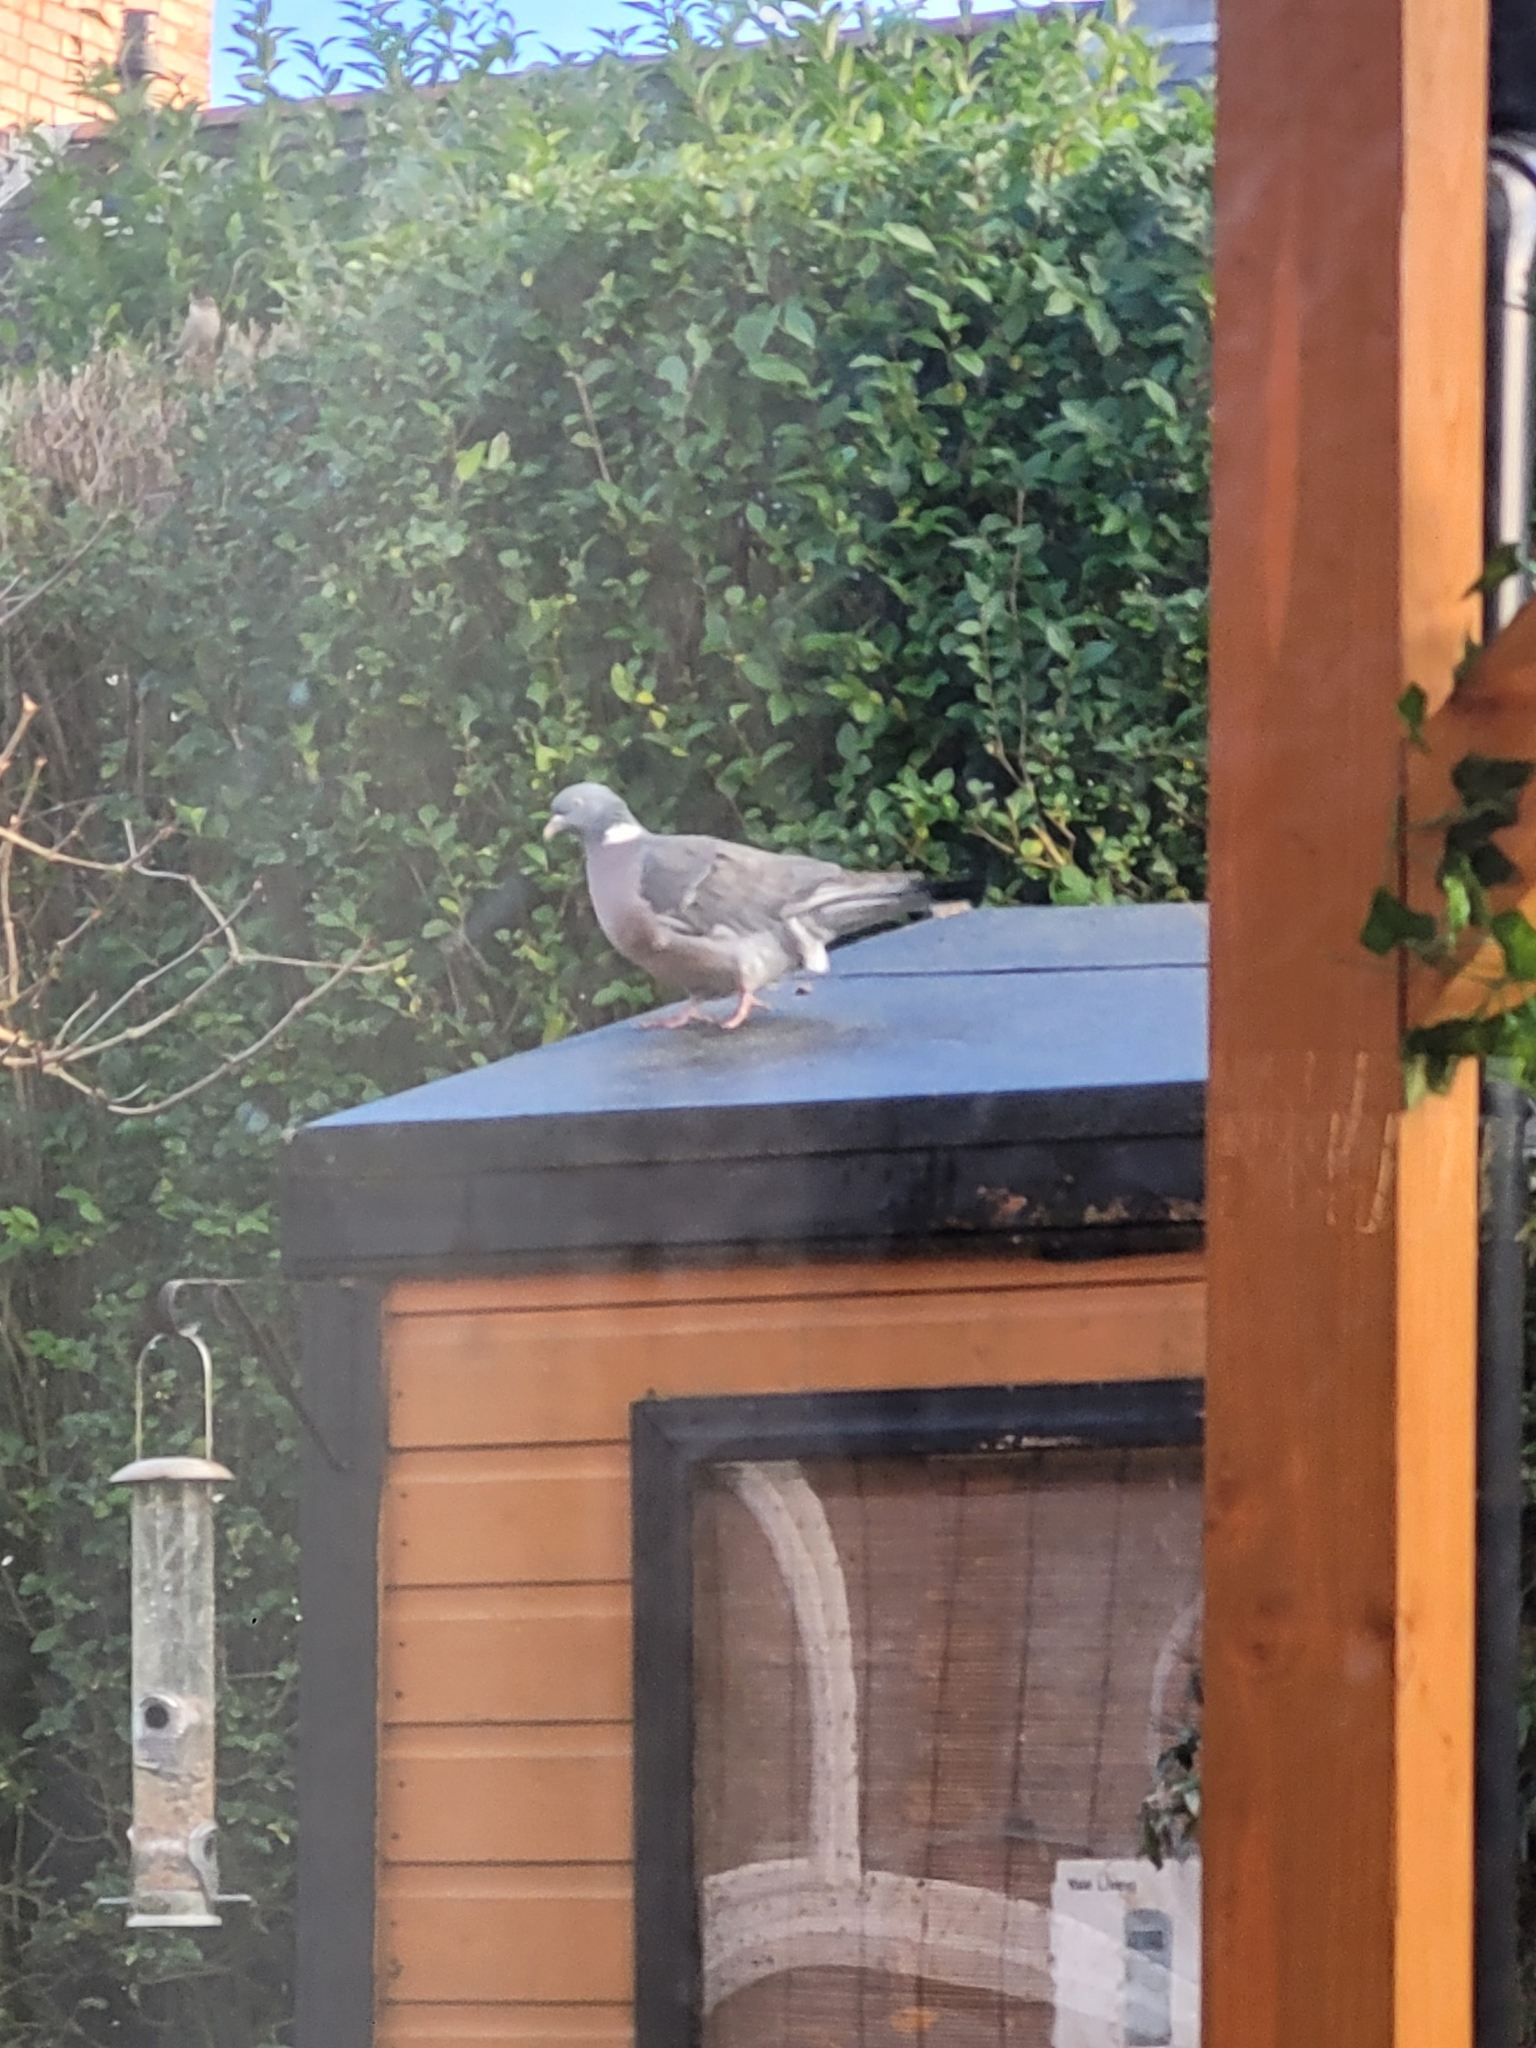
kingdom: Animalia
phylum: Chordata
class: Aves
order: Columbiformes
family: Columbidae
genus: Columba
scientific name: Columba palumbus
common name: Common wood pigeon
